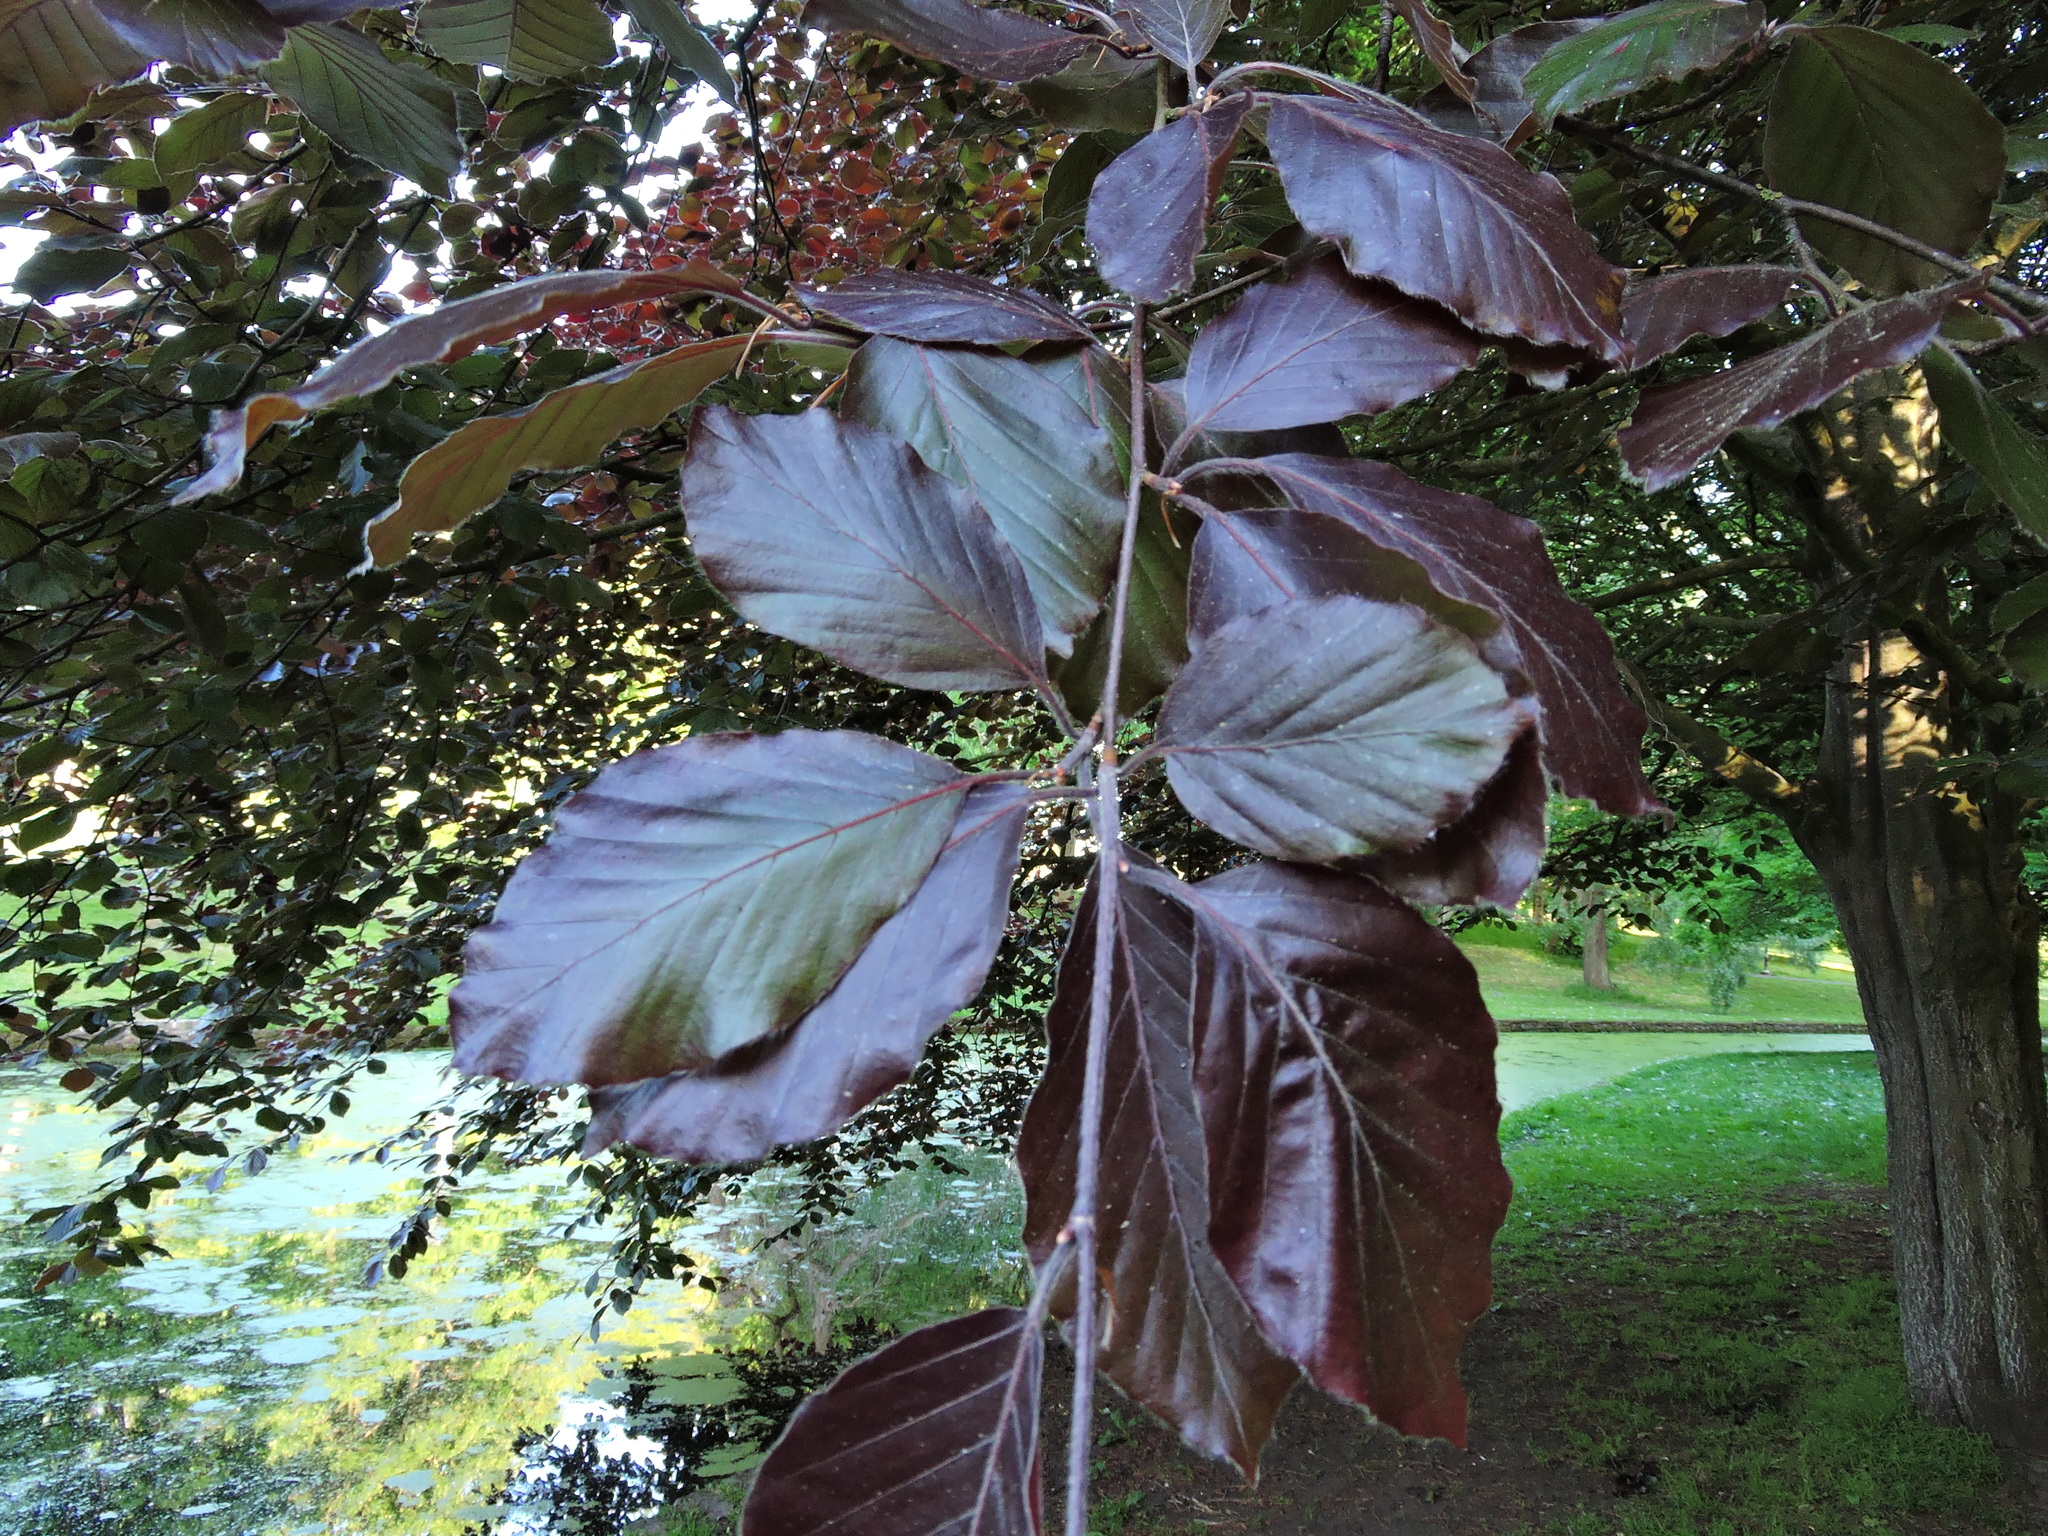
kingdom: Plantae
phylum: Tracheophyta
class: Magnoliopsida
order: Fagales
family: Fagaceae
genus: Fagus
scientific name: Fagus sylvatica
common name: Beech
